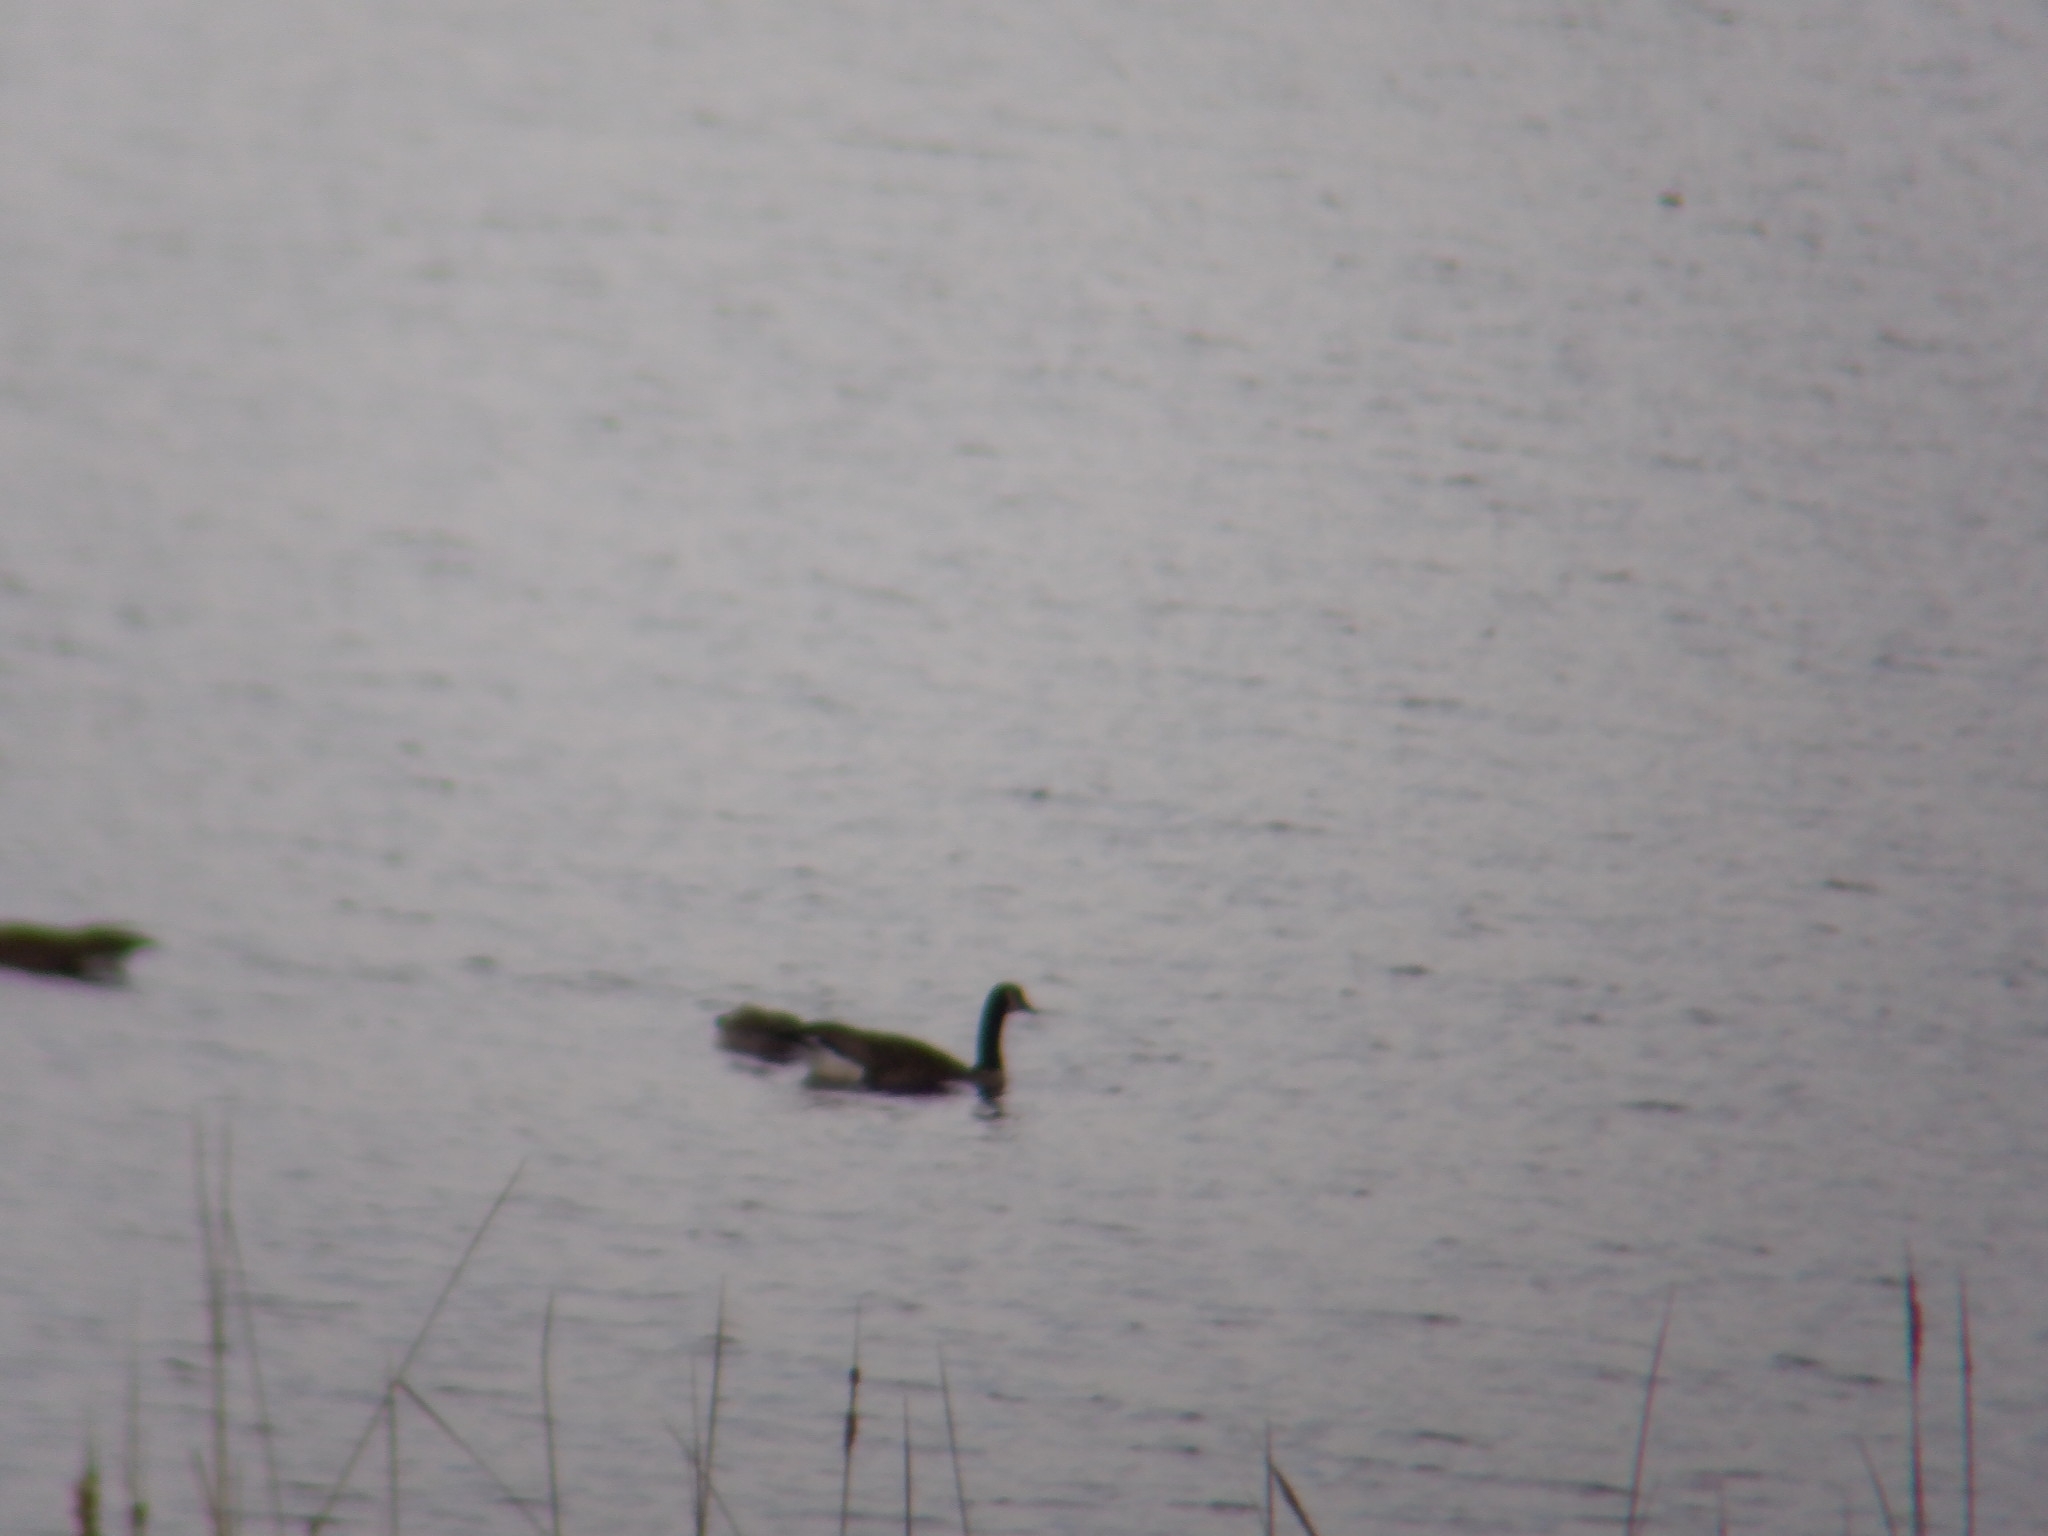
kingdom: Animalia
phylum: Chordata
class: Aves
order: Anseriformes
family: Anatidae
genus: Branta
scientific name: Branta canadensis
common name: Canada goose
